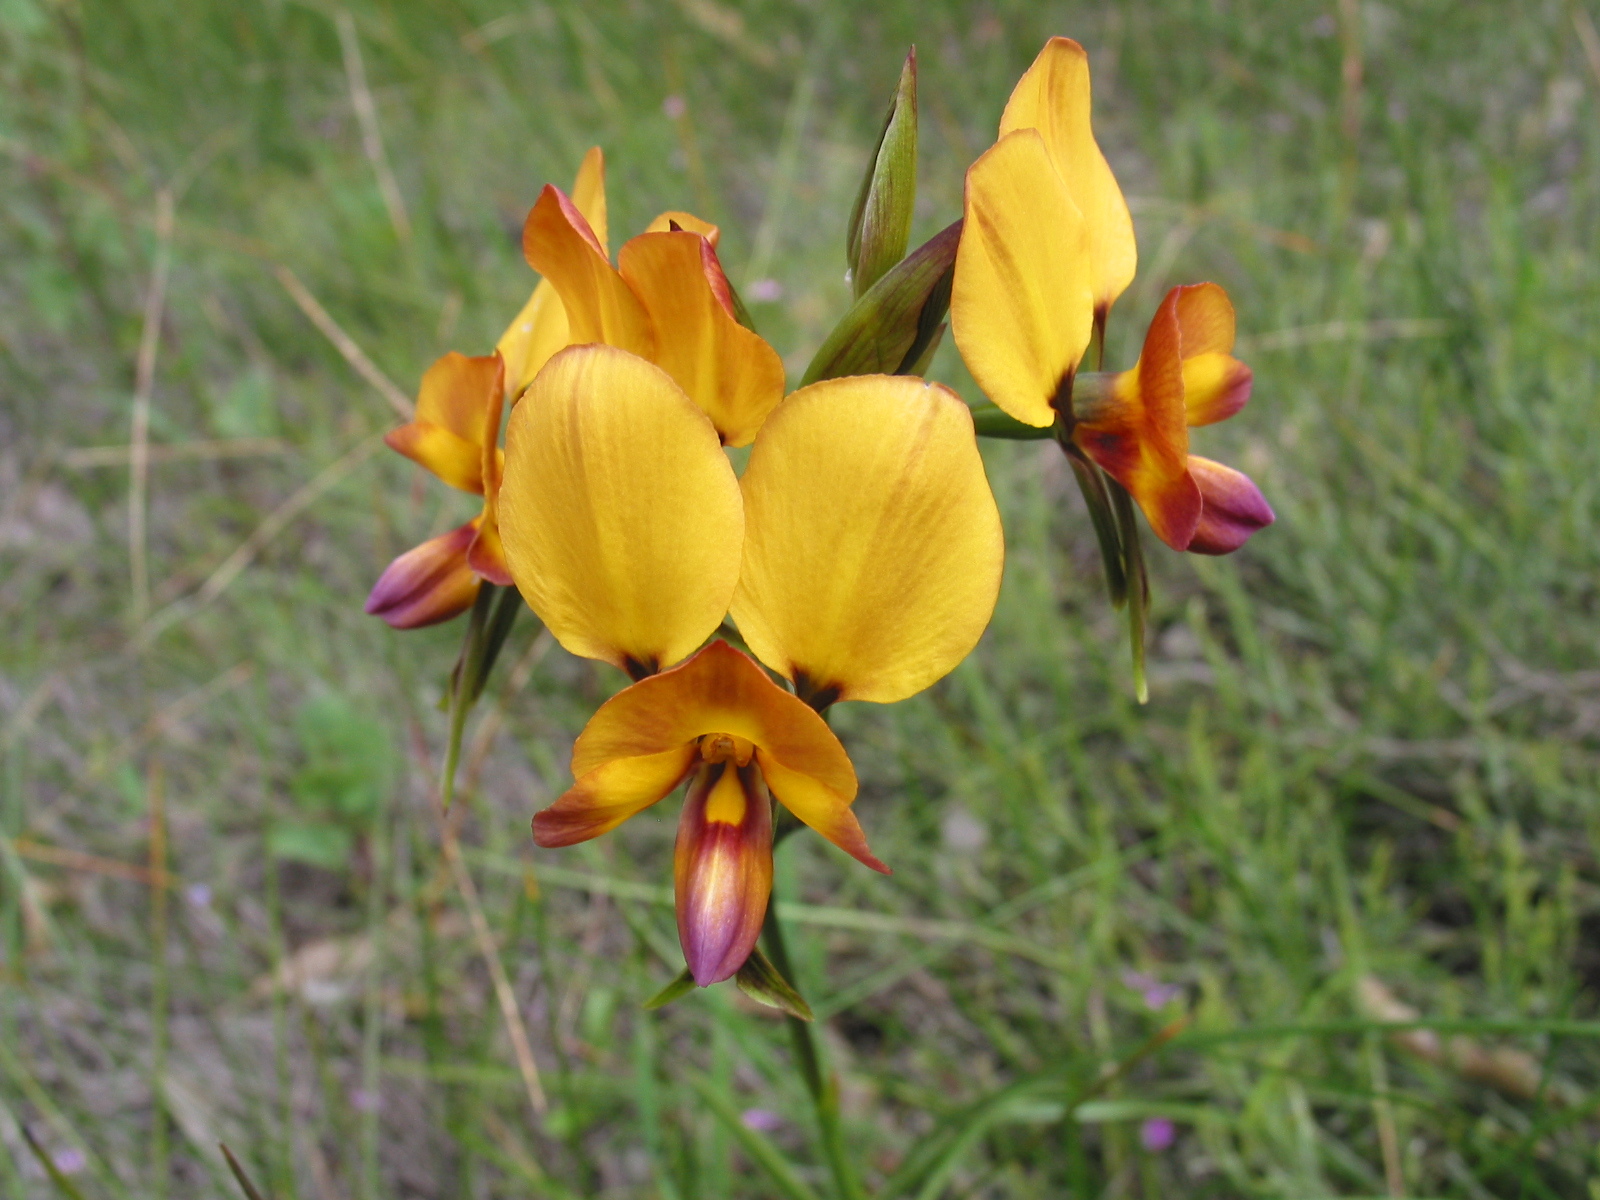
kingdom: Plantae
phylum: Tracheophyta
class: Liliopsida
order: Asparagales
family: Orchidaceae
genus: Diuris
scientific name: Diuris magnifica
